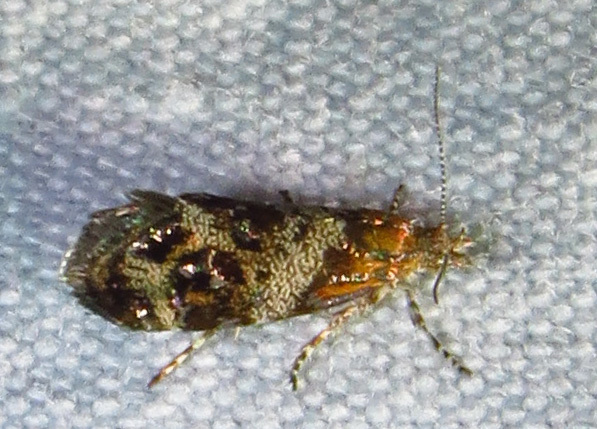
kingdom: Animalia
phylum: Arthropoda
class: Insecta
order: Lepidoptera
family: Choreutidae
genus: Tebenna
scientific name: Tebenna gnaphaliella
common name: Everlasting tebenna moth
